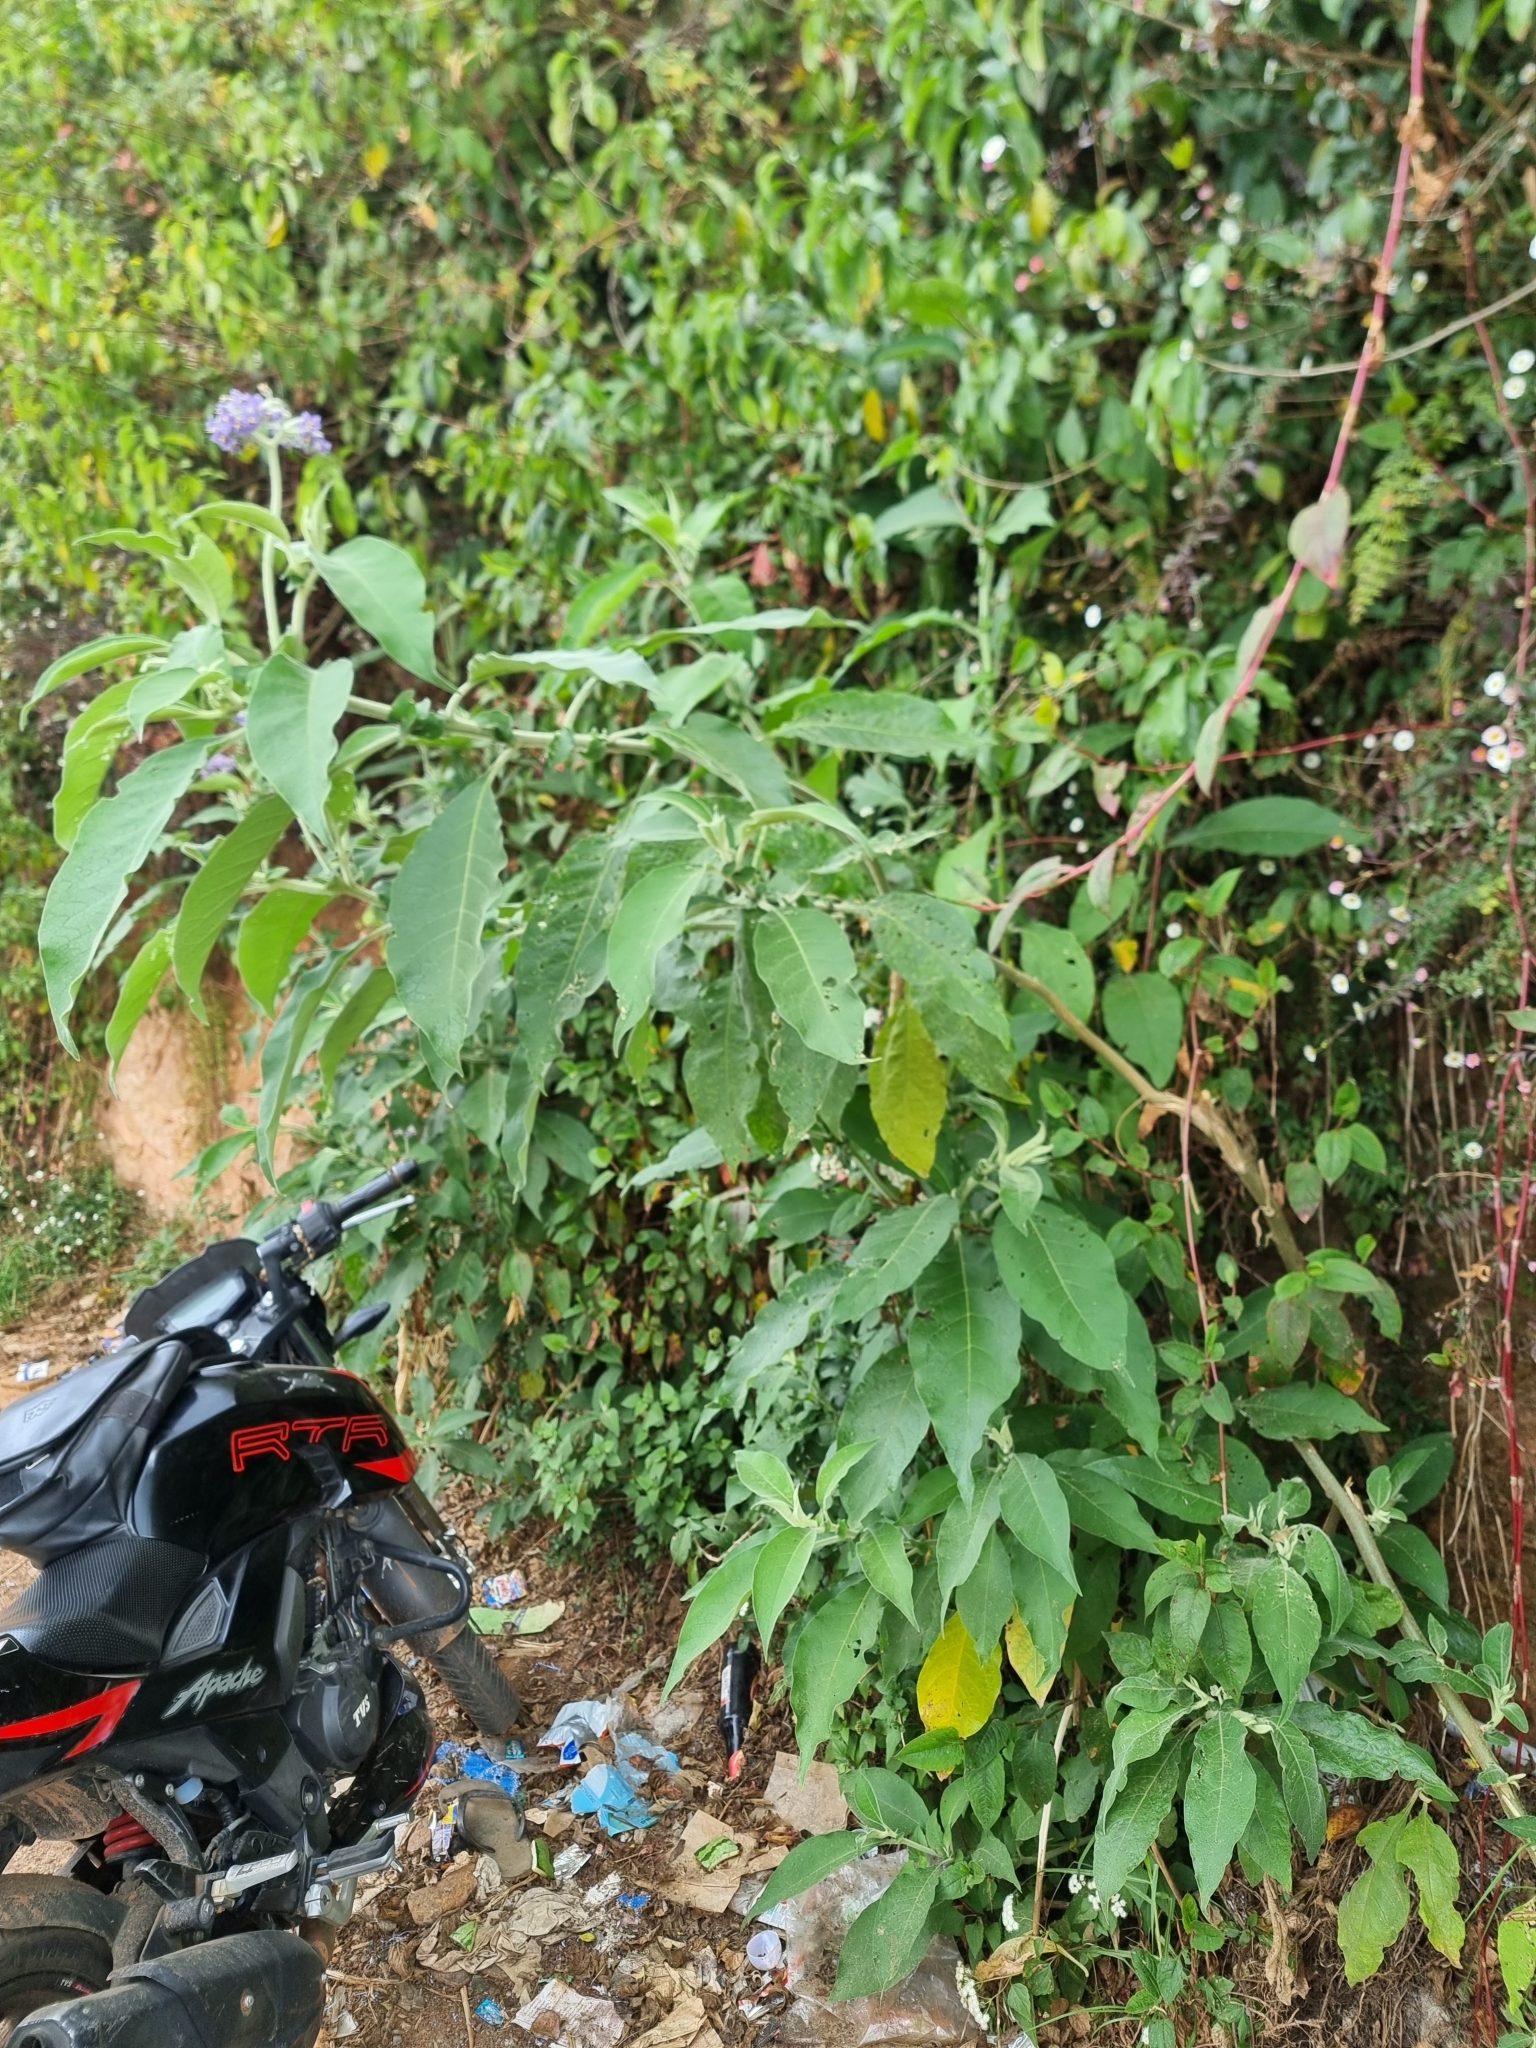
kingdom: Plantae
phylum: Tracheophyta
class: Magnoliopsida
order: Solanales
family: Solanaceae
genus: Solanum
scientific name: Solanum mauritianum
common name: Earleaf nightshade
